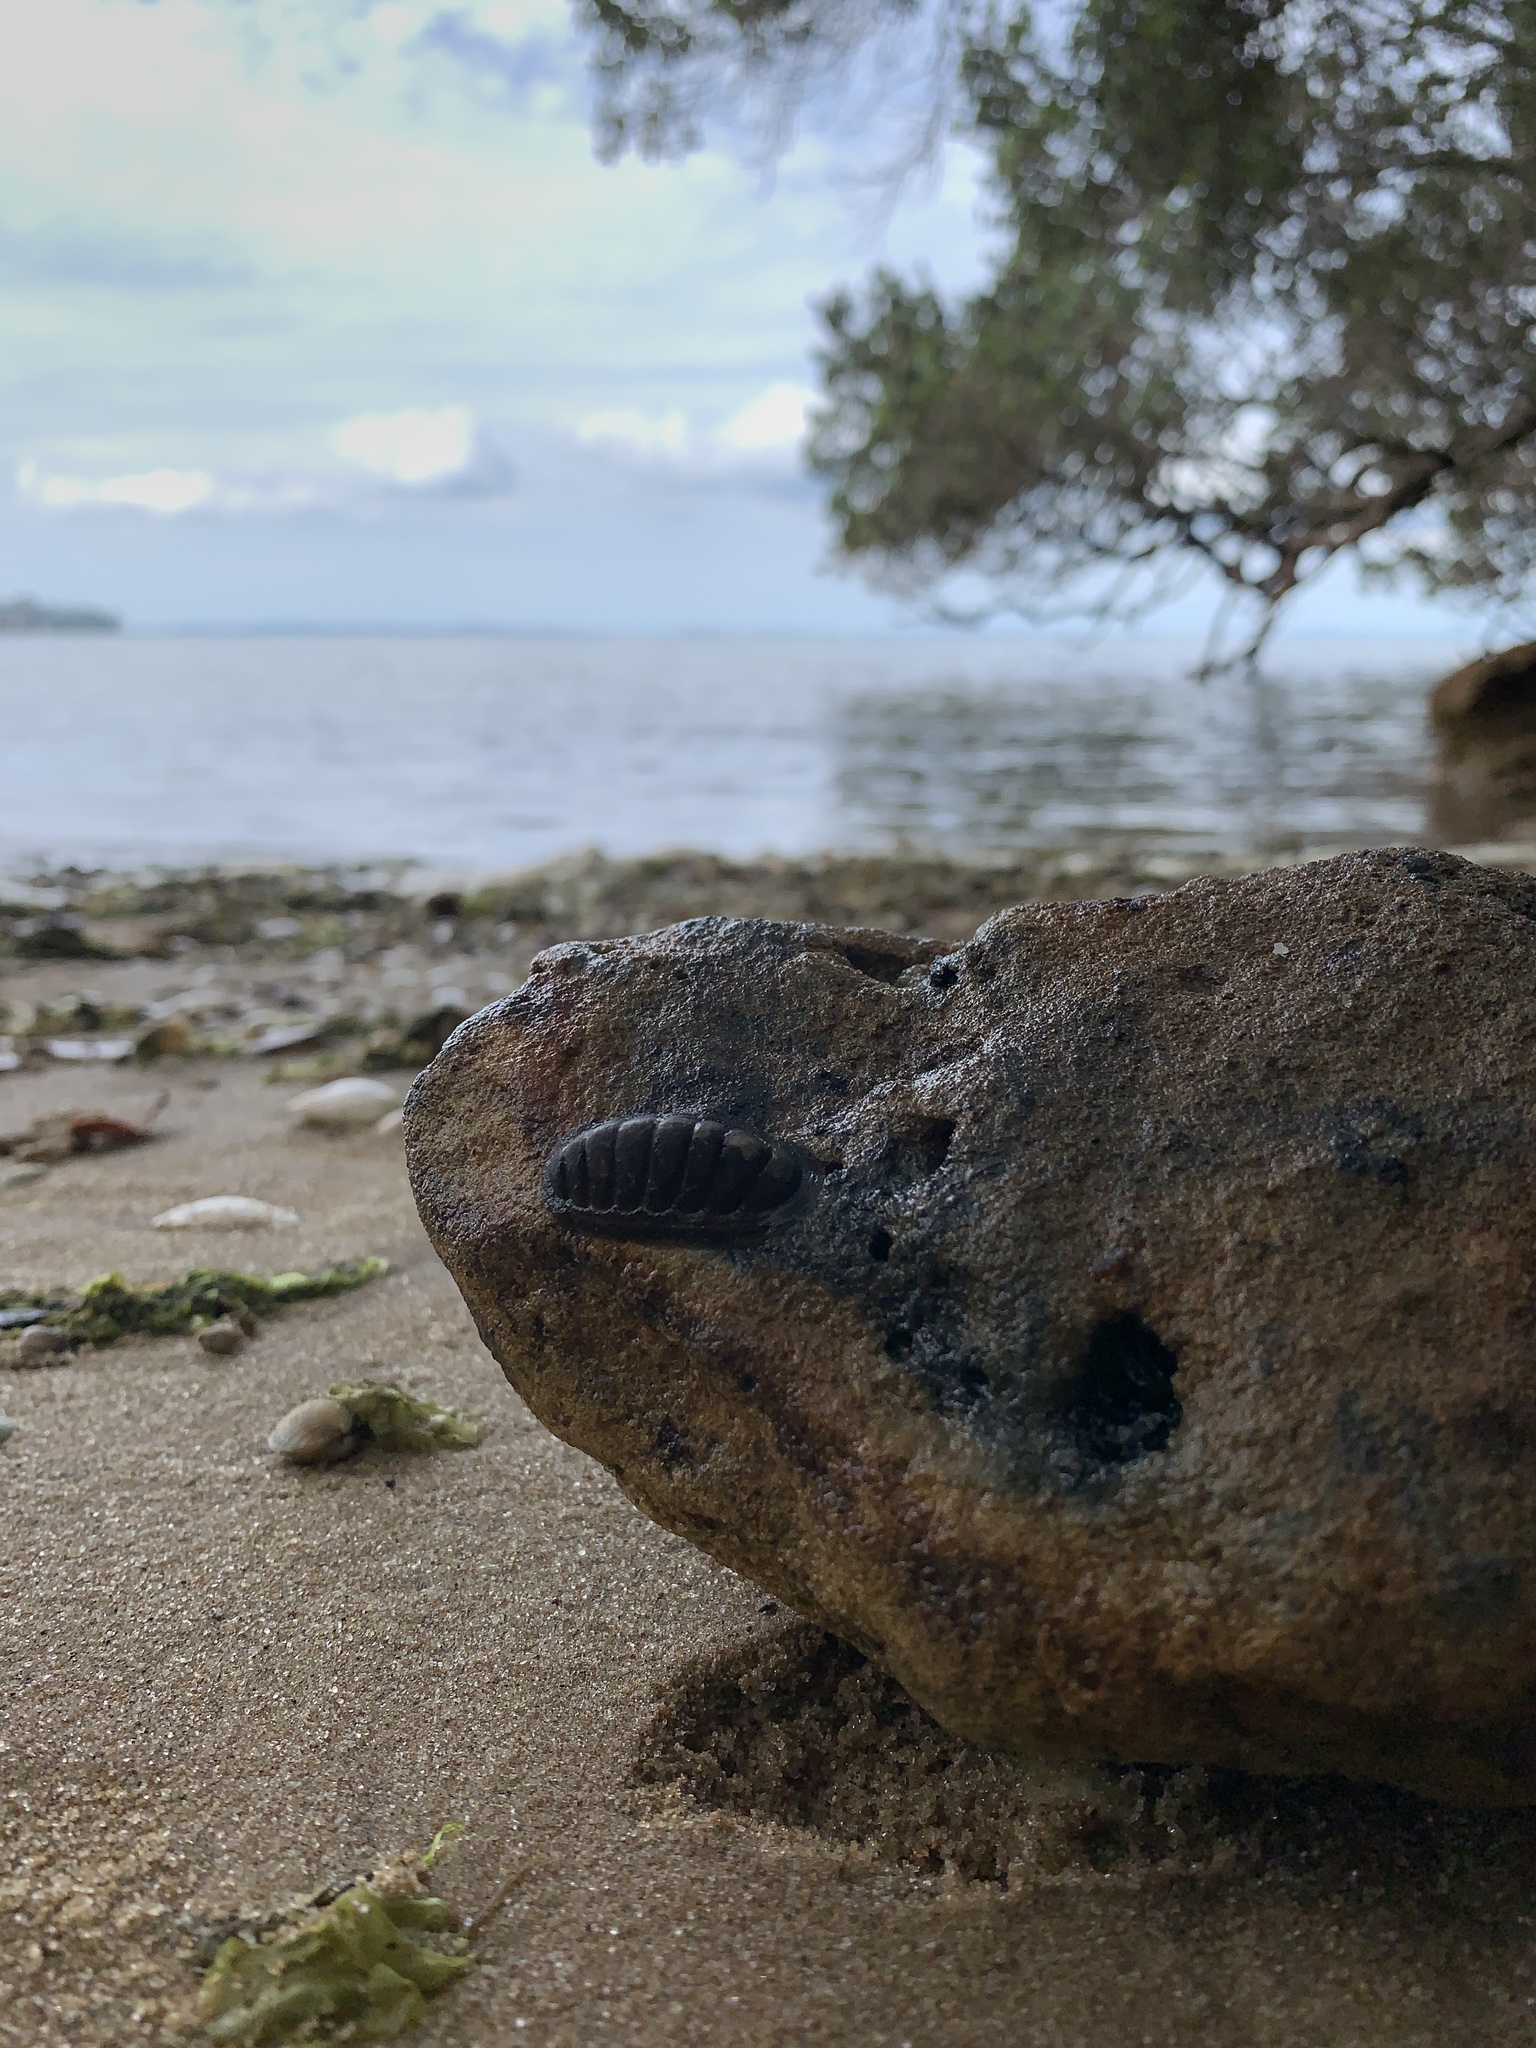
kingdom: Animalia
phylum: Mollusca
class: Polyplacophora
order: Chitonida
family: Chitonidae
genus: Chiton
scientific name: Chiton glaucus
